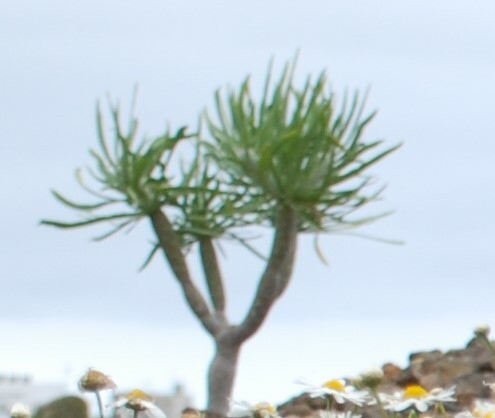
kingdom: Plantae
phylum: Tracheophyta
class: Magnoliopsida
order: Asterales
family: Asteraceae
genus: Kleinia
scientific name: Kleinia neriifolia
